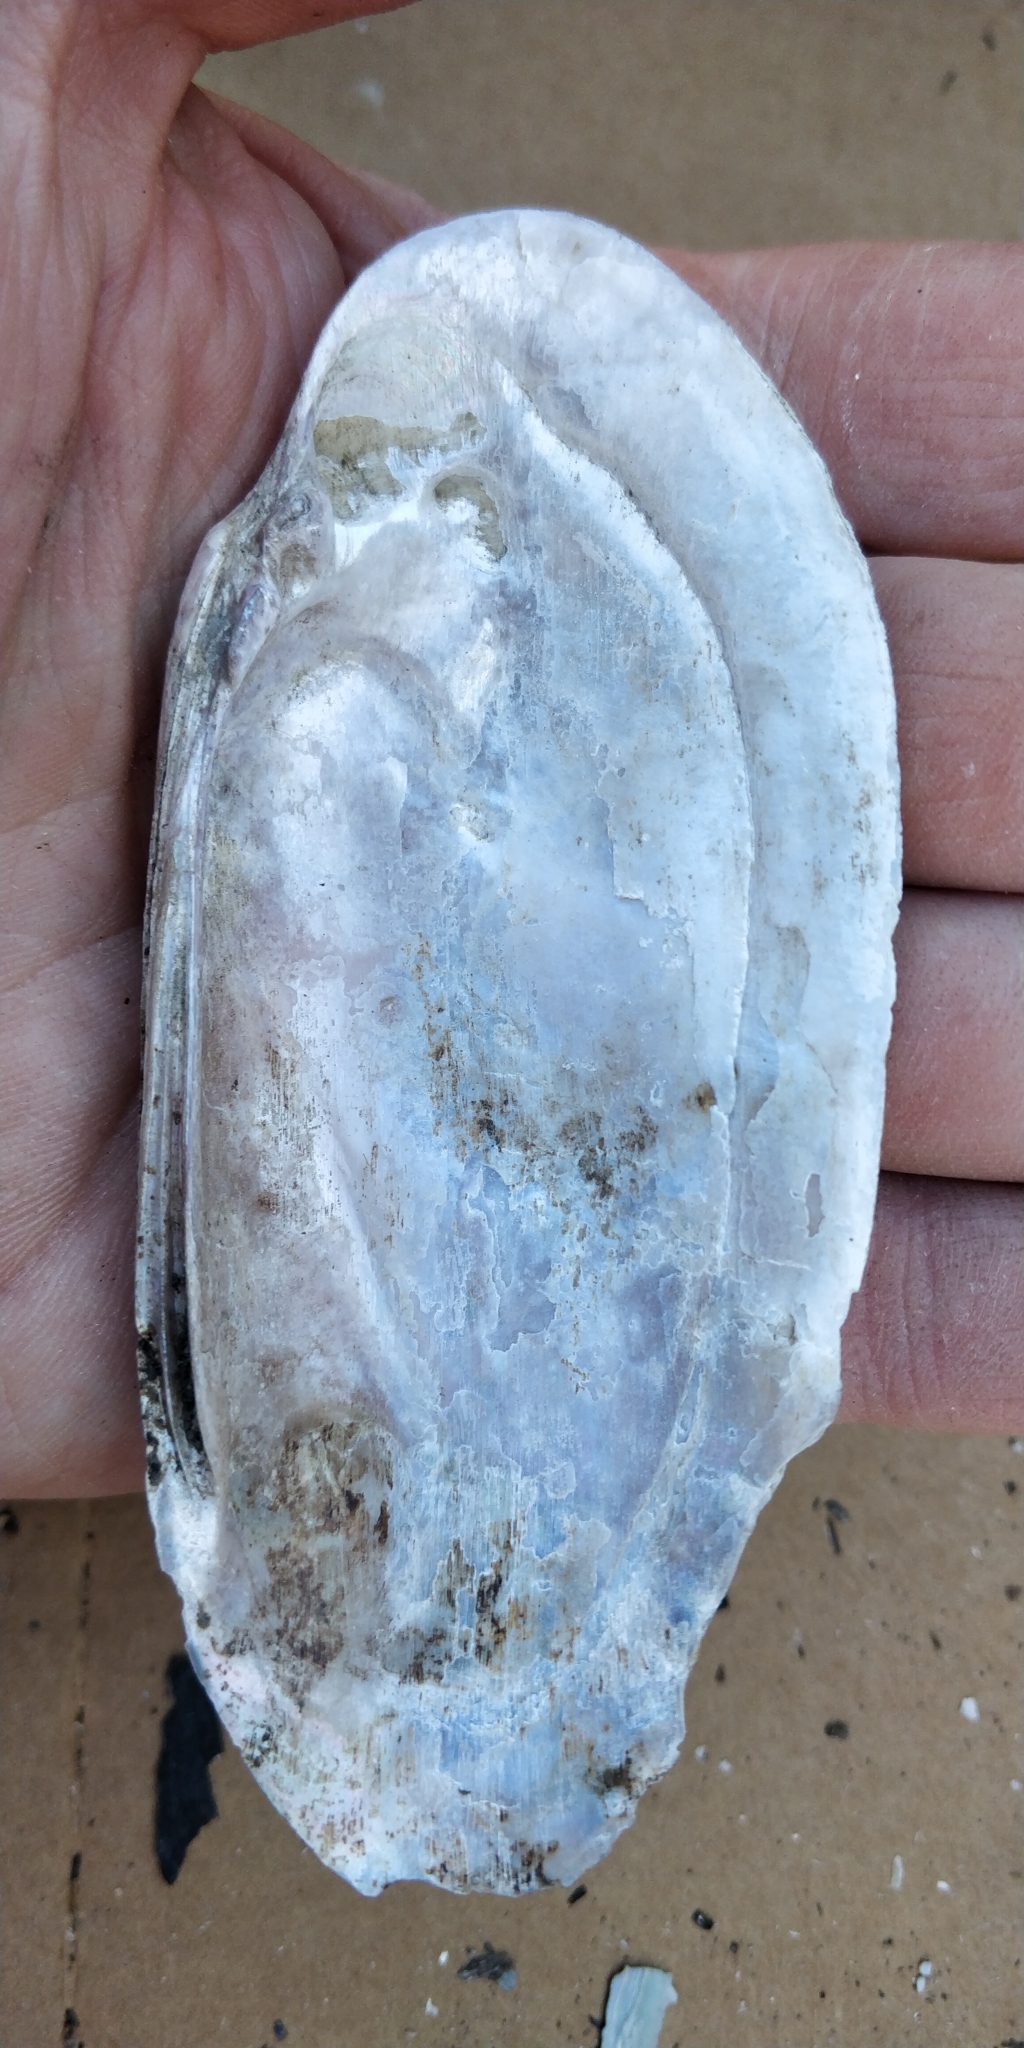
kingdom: Animalia
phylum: Mollusca
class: Bivalvia
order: Unionida
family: Unionidae
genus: Ligumia
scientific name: Ligumia recta
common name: Black sandshell
